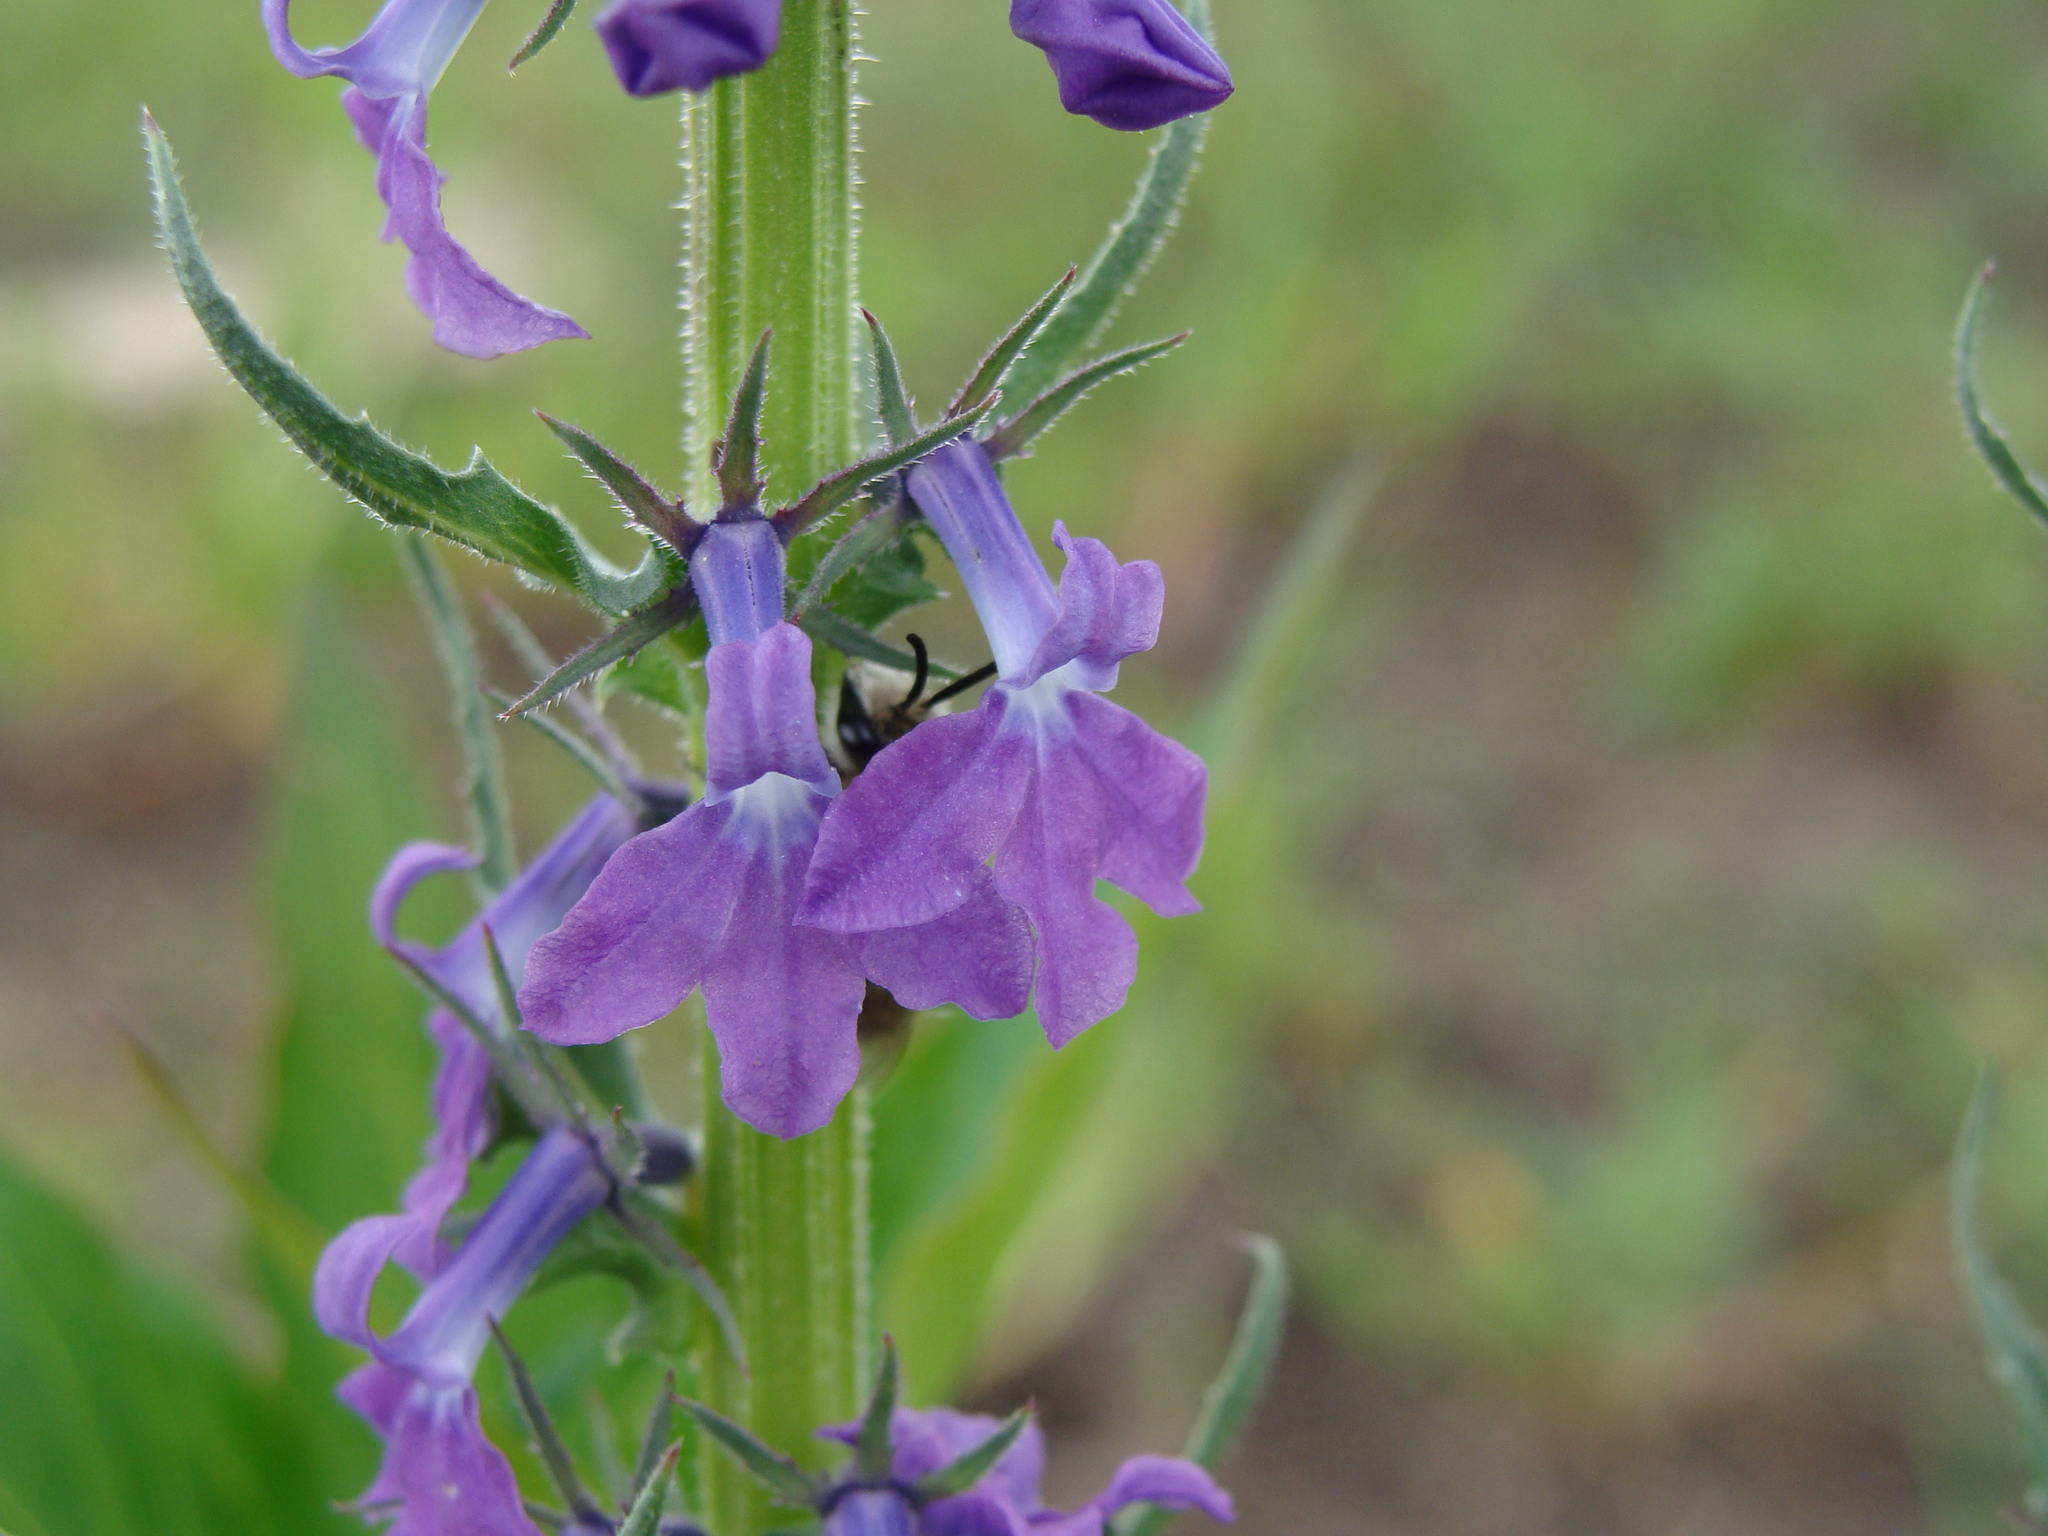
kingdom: Plantae
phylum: Tracheophyta
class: Magnoliopsida
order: Asterales
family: Campanulaceae
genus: Lobelia
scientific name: Lobelia fenestralis
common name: Leafy lobelia
